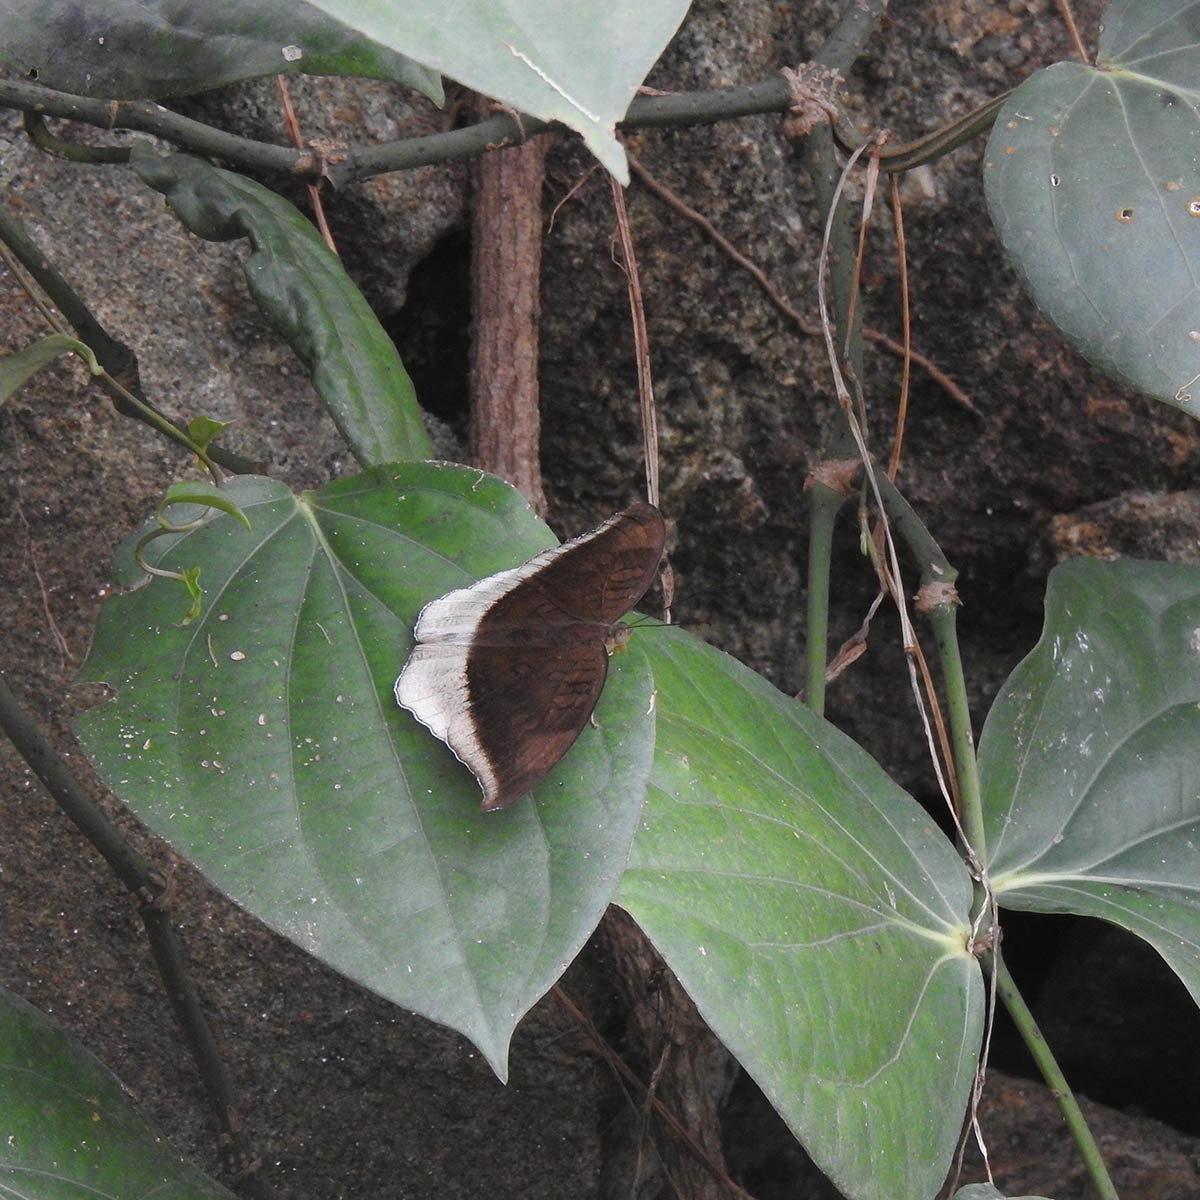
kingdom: Animalia
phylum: Arthropoda
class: Insecta
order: Lepidoptera
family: Nymphalidae
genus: Tanaecia
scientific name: Tanaecia lepidea
